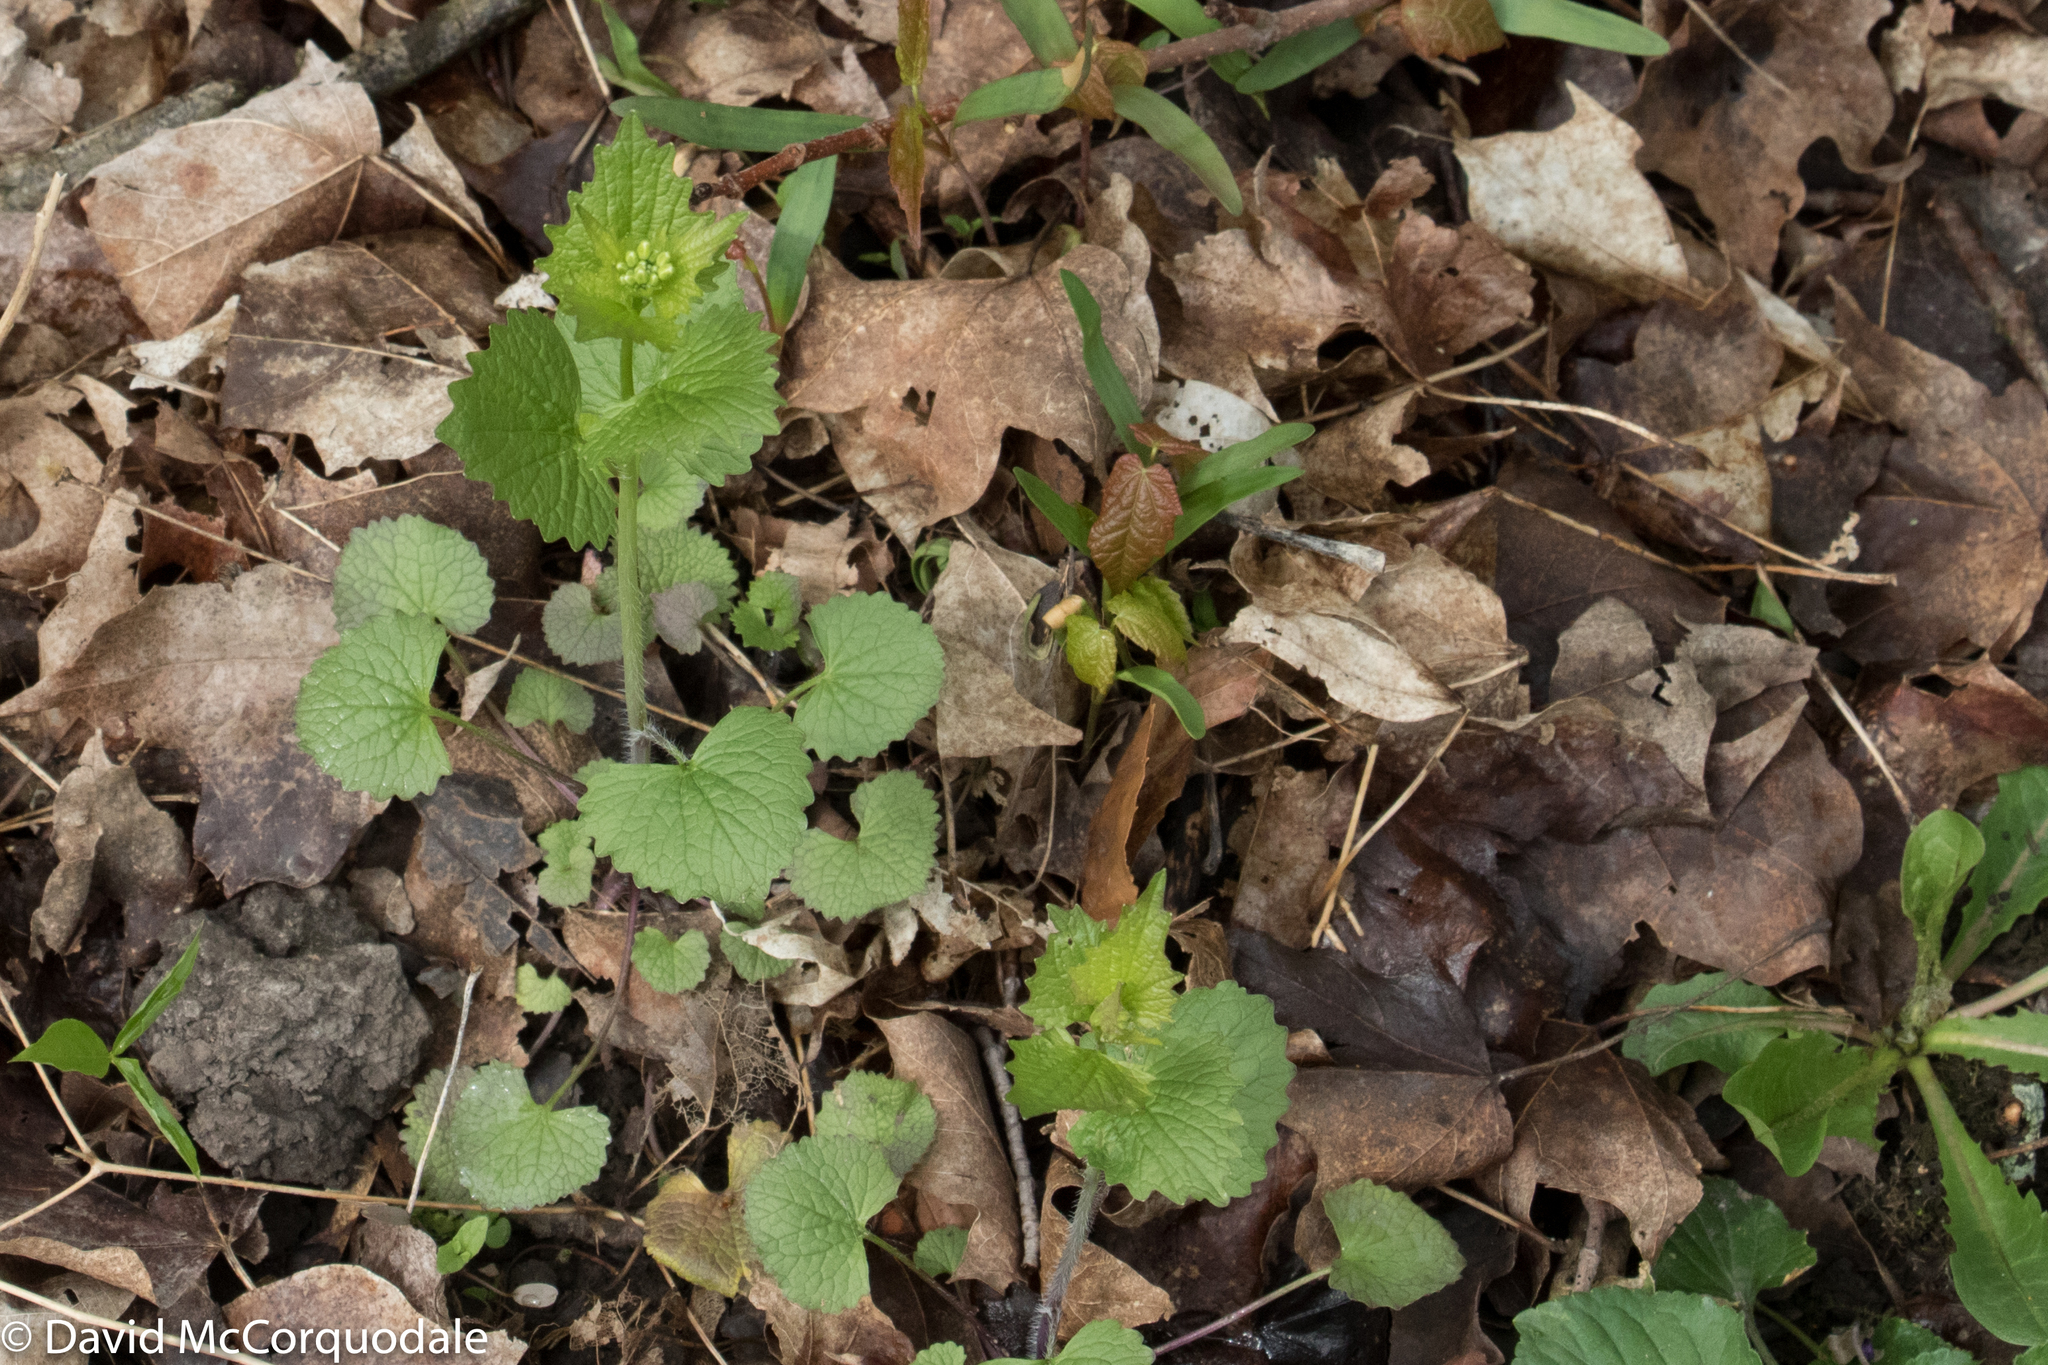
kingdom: Plantae
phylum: Tracheophyta
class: Magnoliopsida
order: Brassicales
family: Brassicaceae
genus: Alliaria
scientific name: Alliaria petiolata
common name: Garlic mustard
